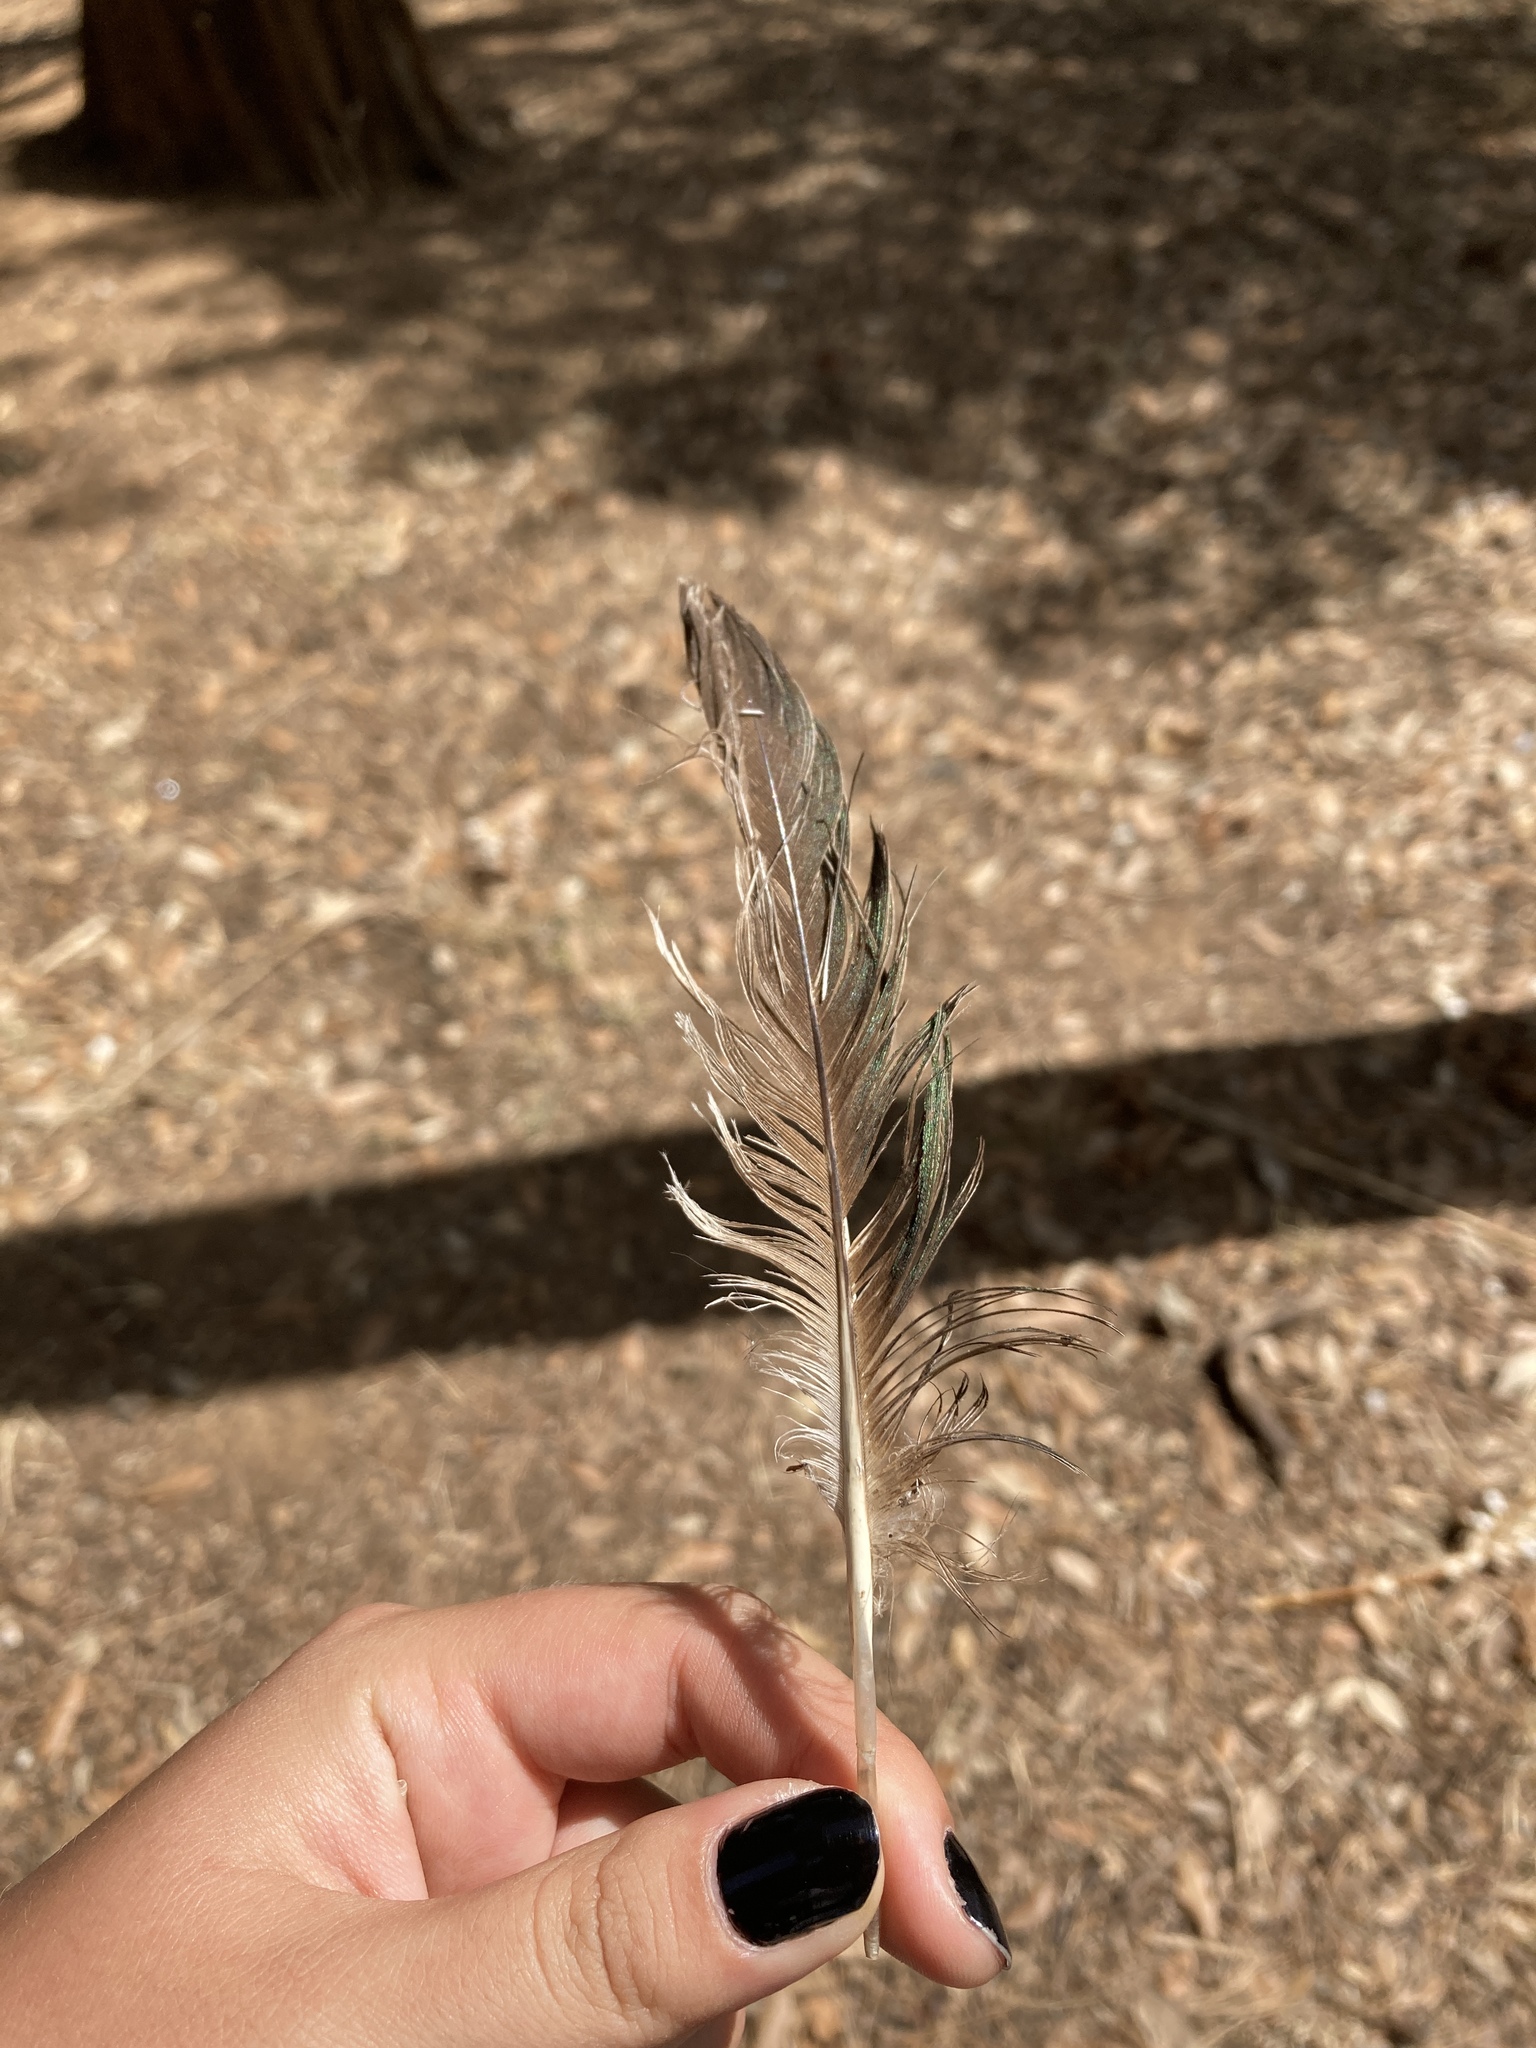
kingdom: Animalia
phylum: Chordata
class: Aves
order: Anseriformes
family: Anatidae
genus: Tadorna
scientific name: Tadorna ferruginea
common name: Ruddy shelduck
